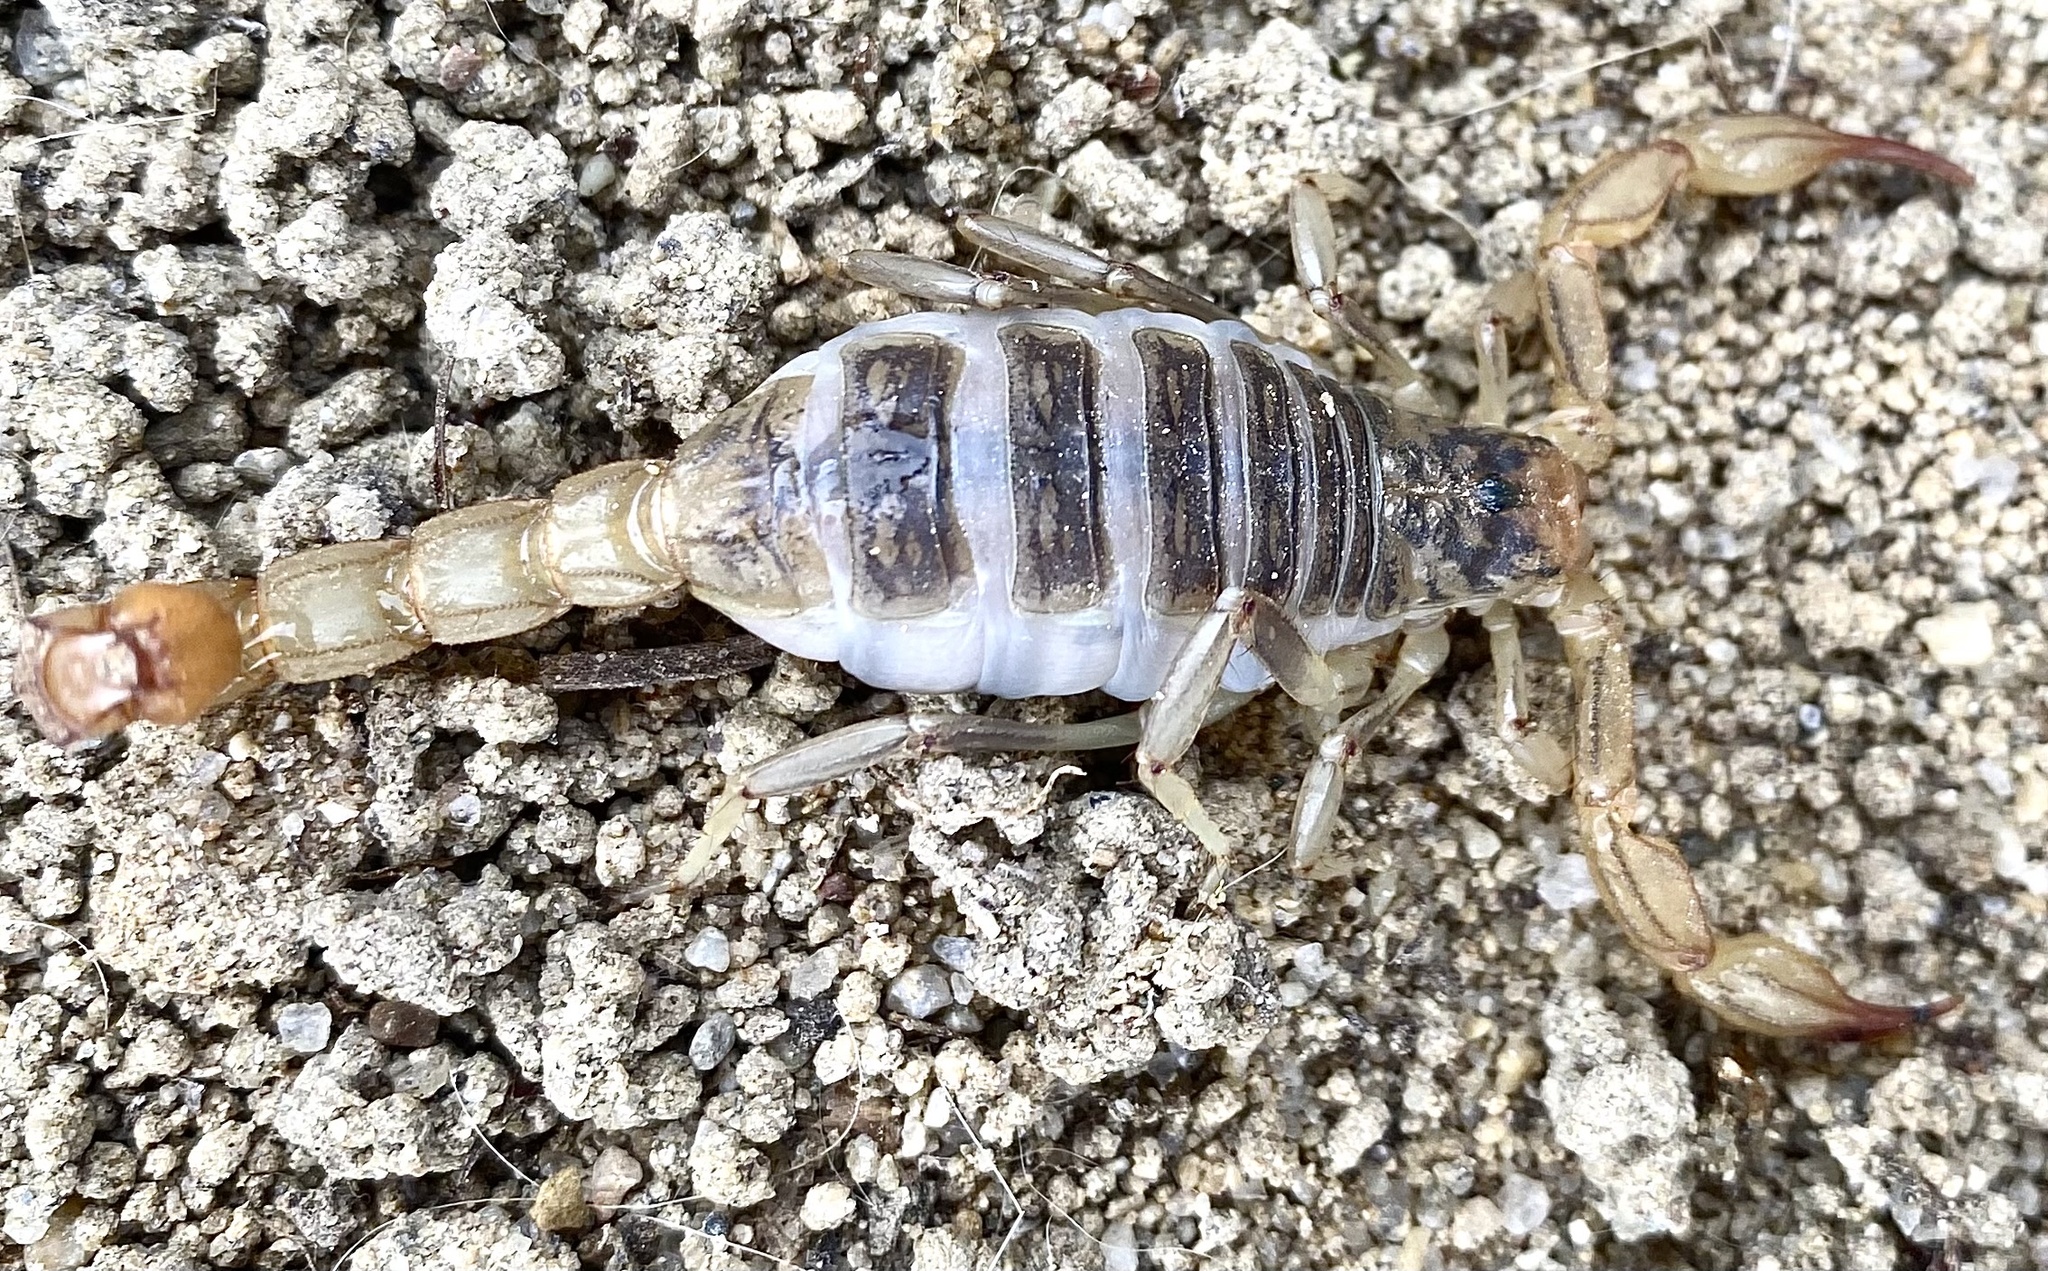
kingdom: Animalia
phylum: Arthropoda
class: Arachnida
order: Scorpiones
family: Vaejovidae
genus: Paruroctonus
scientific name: Paruroctonus silvestrii
